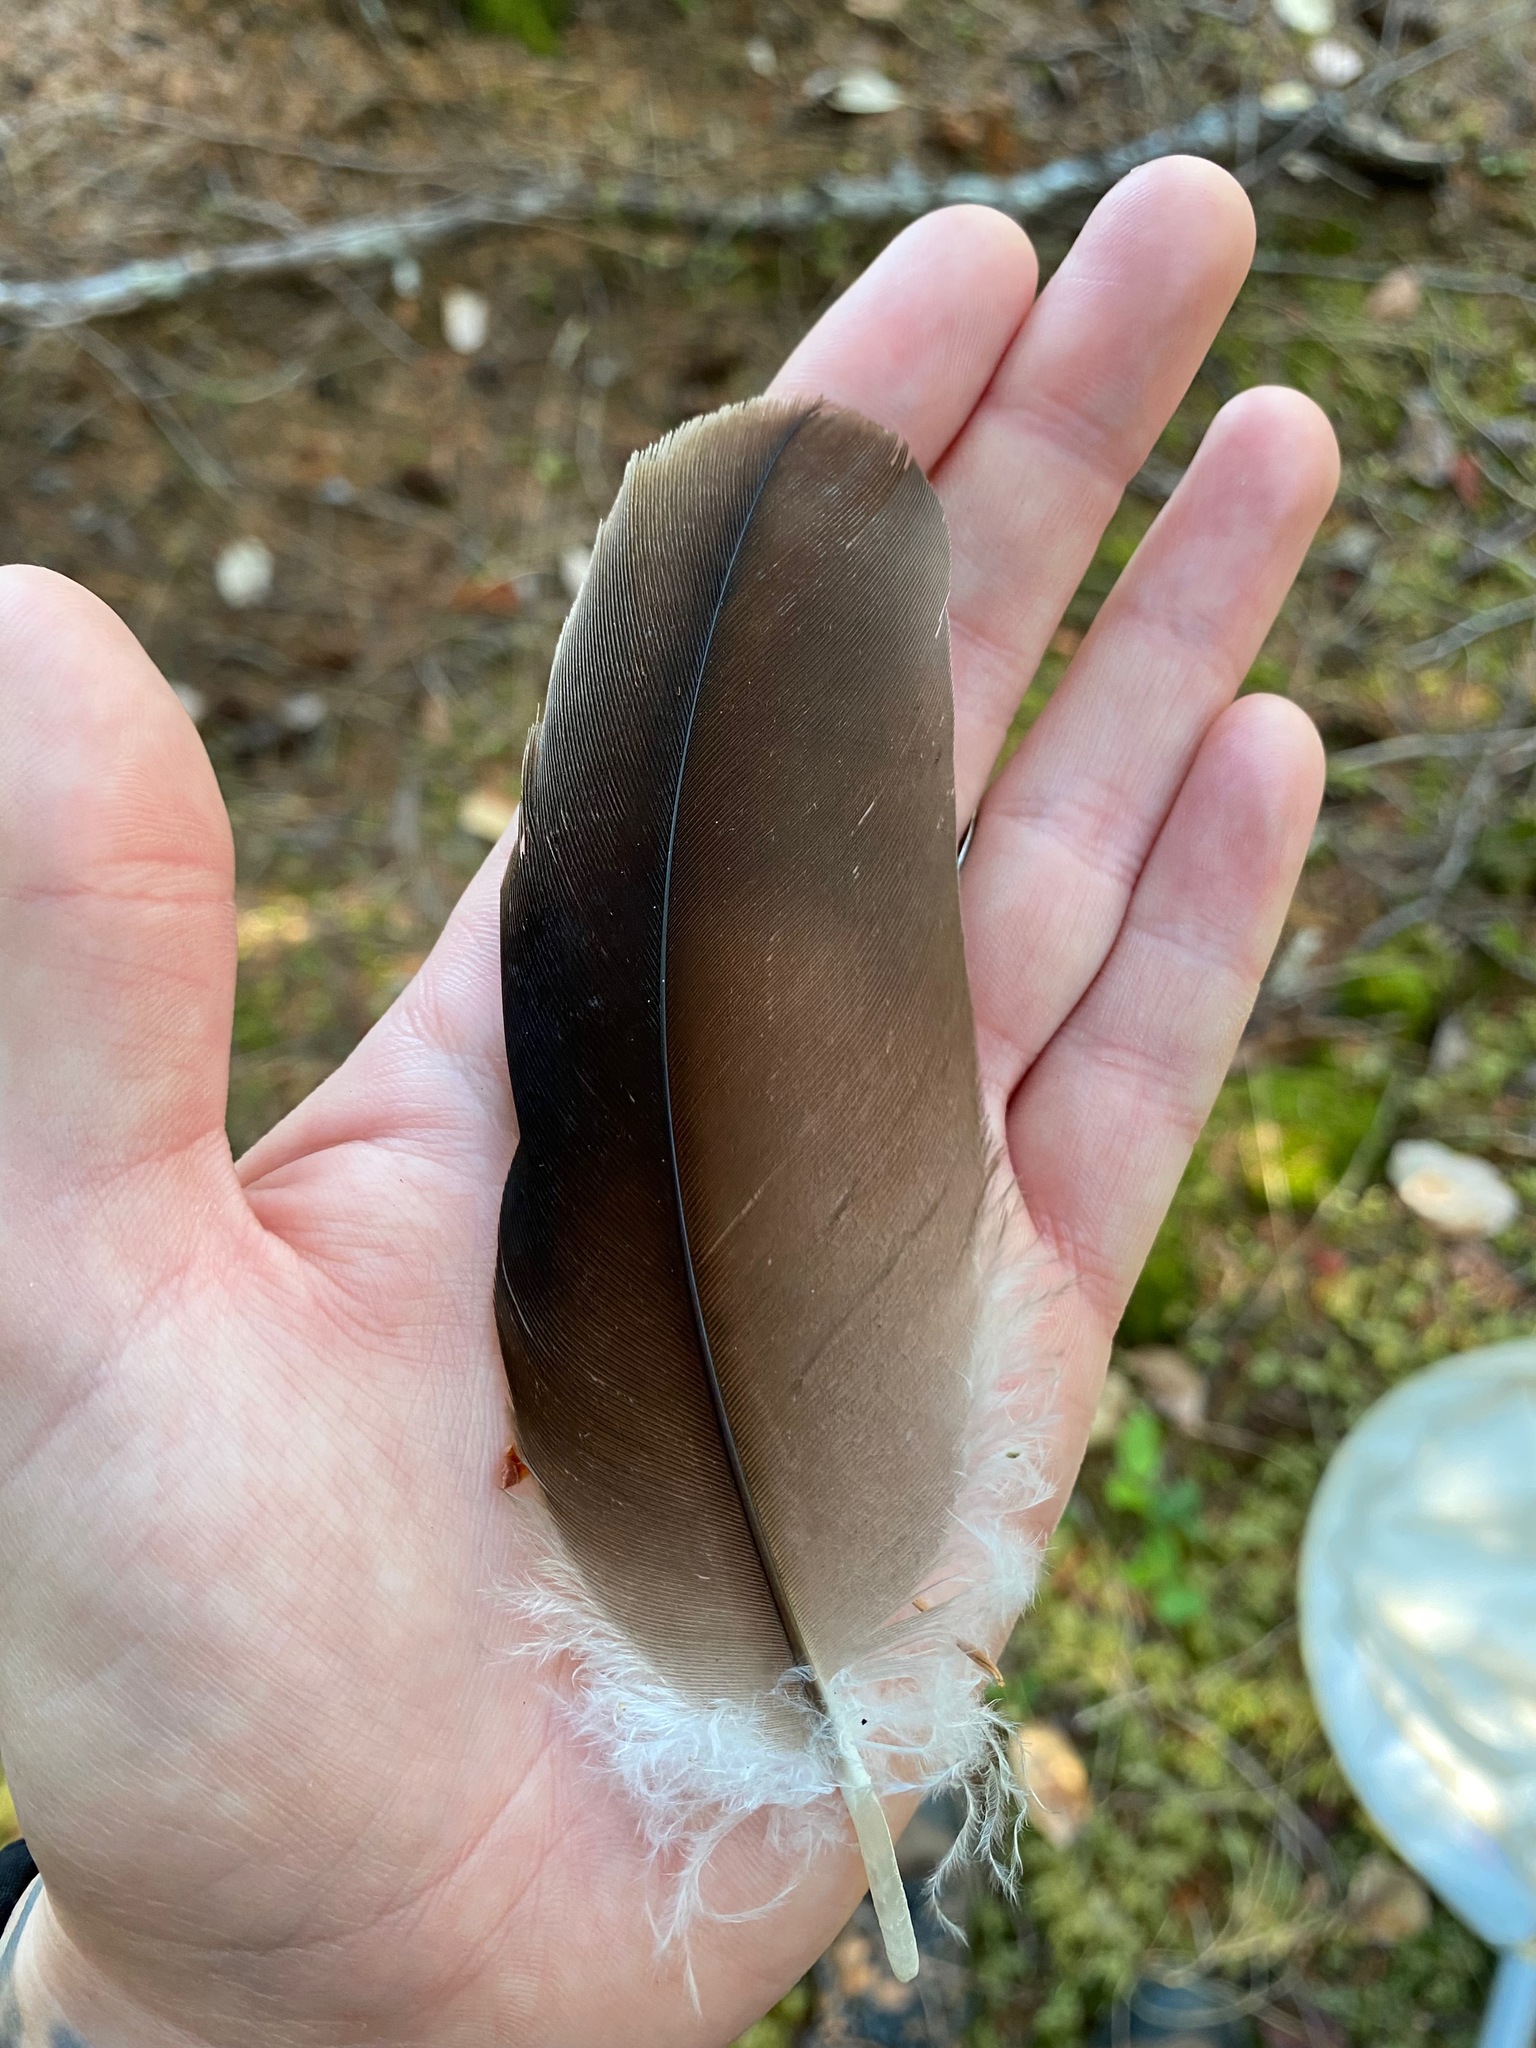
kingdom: Animalia
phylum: Chordata
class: Aves
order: Accipitriformes
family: Cathartidae
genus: Cathartes
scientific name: Cathartes aura
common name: Turkey vulture
